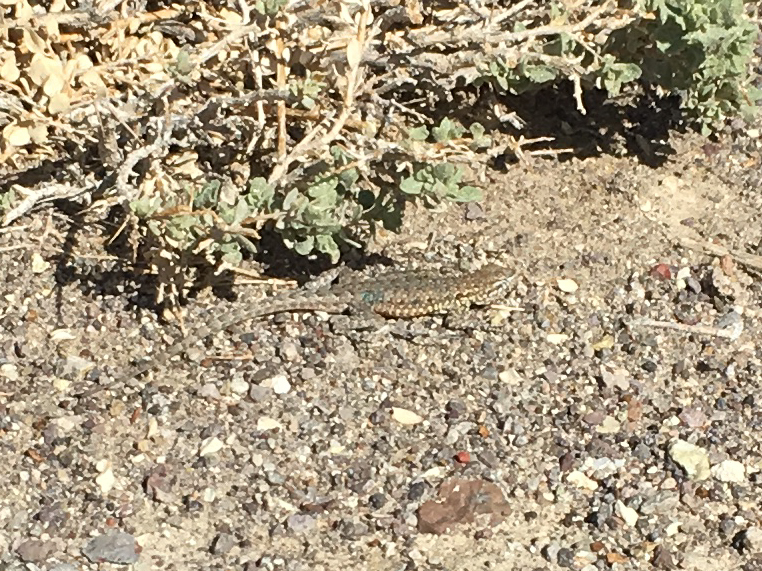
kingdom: Animalia
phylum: Chordata
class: Squamata
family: Phrynosomatidae
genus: Uta
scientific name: Uta stansburiana
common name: Side-blotched lizard
